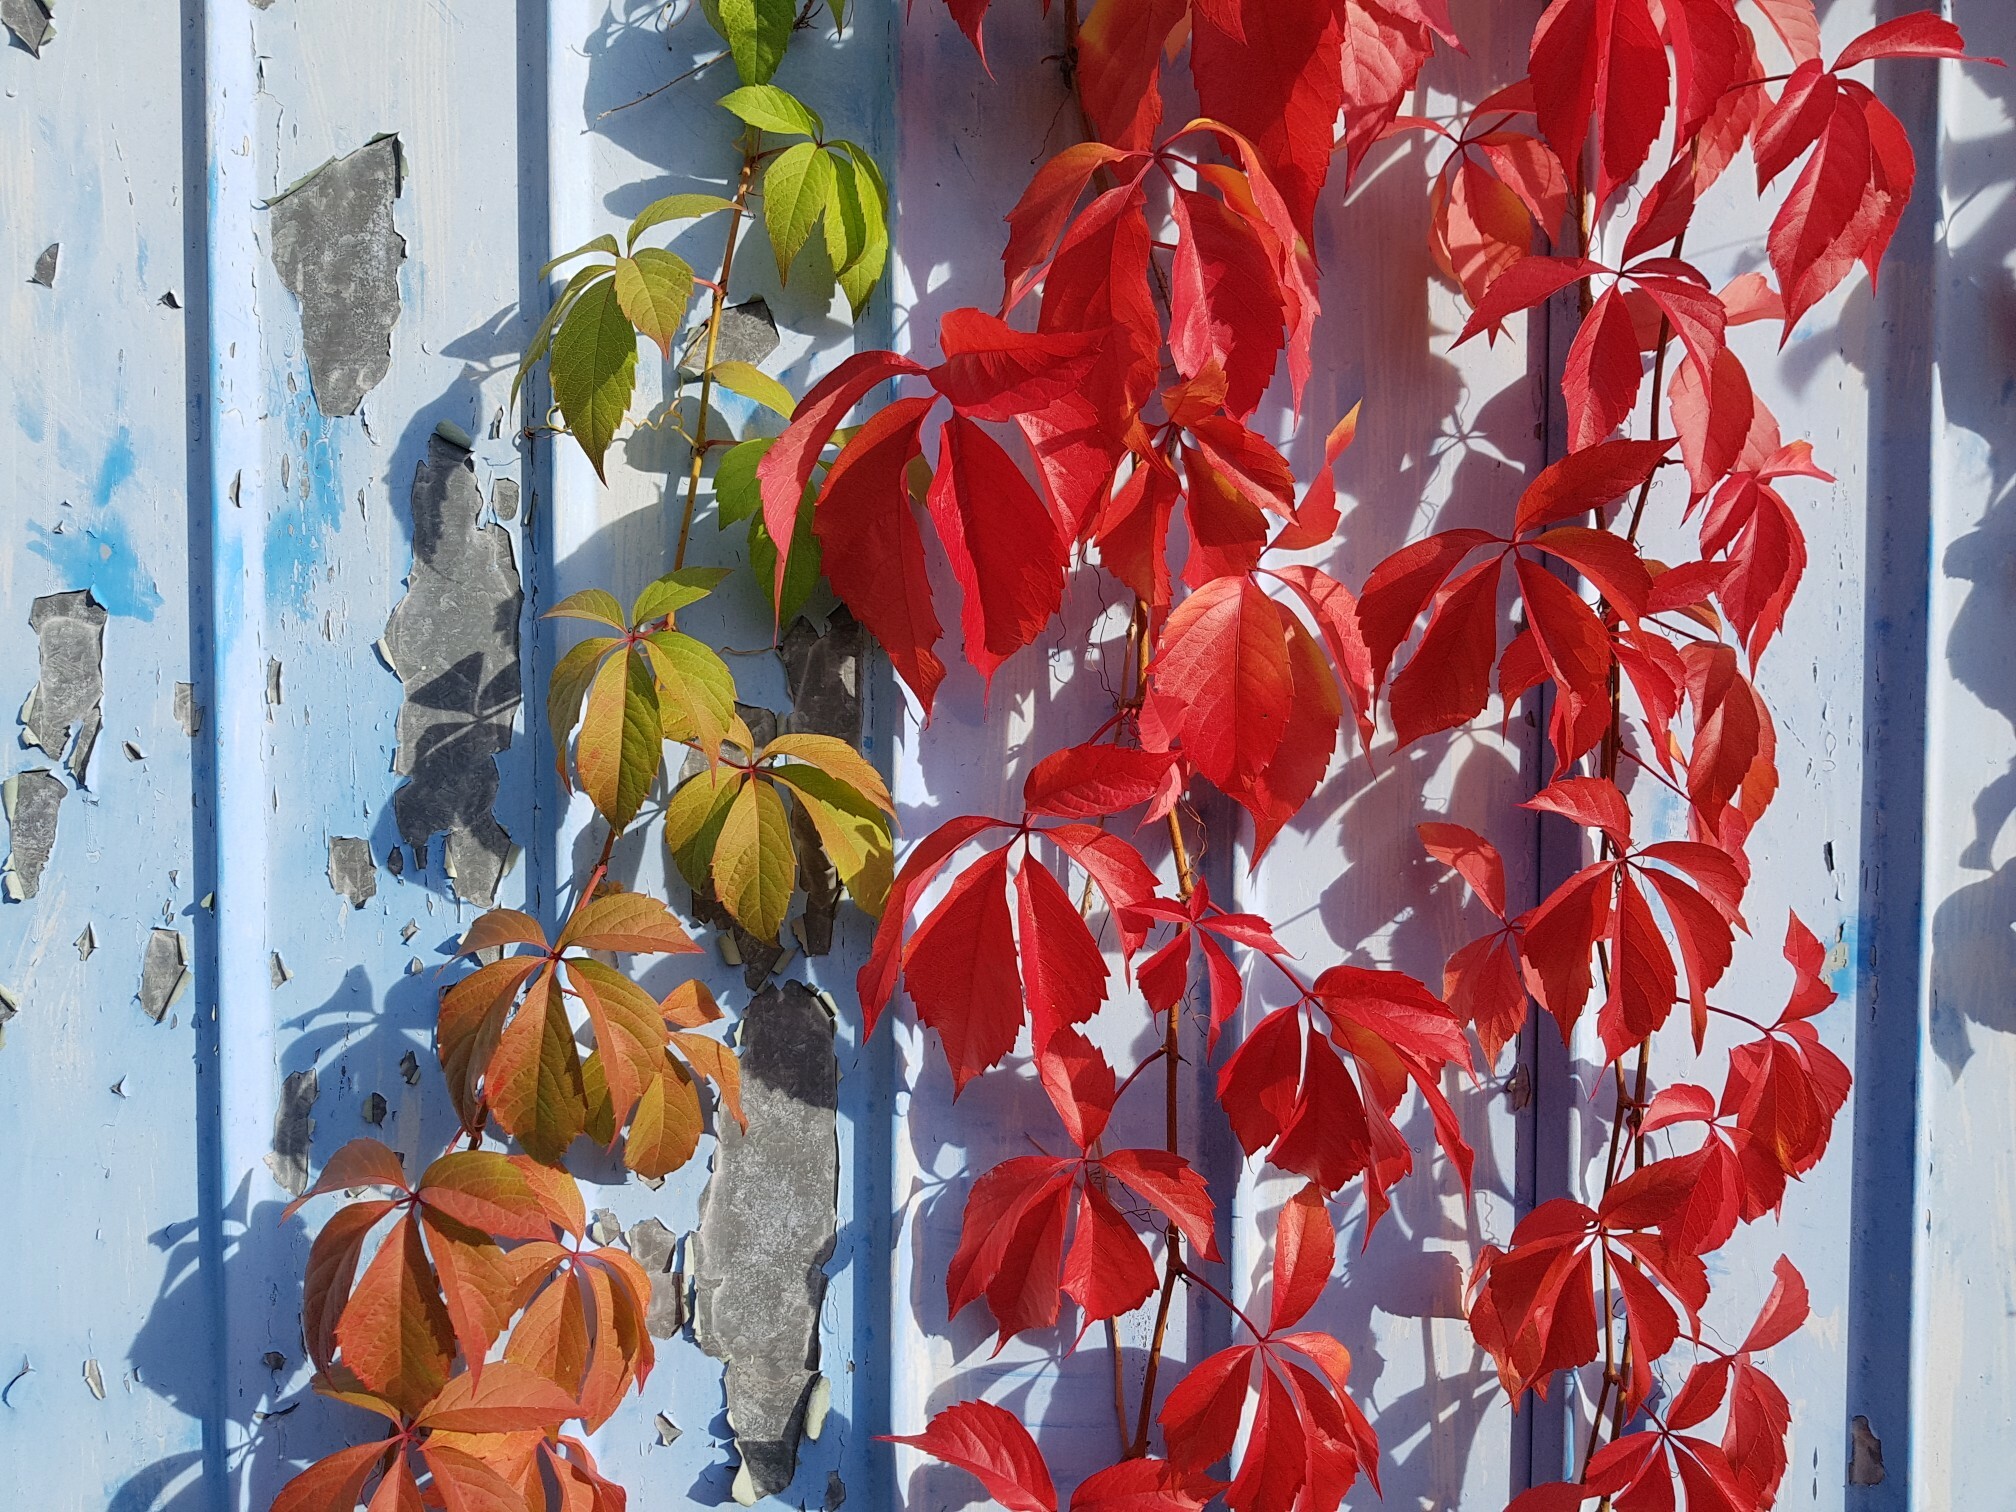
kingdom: Plantae
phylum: Tracheophyta
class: Magnoliopsida
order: Vitales
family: Vitaceae
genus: Parthenocissus
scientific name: Parthenocissus quinquefolia
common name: Virginia-creeper
